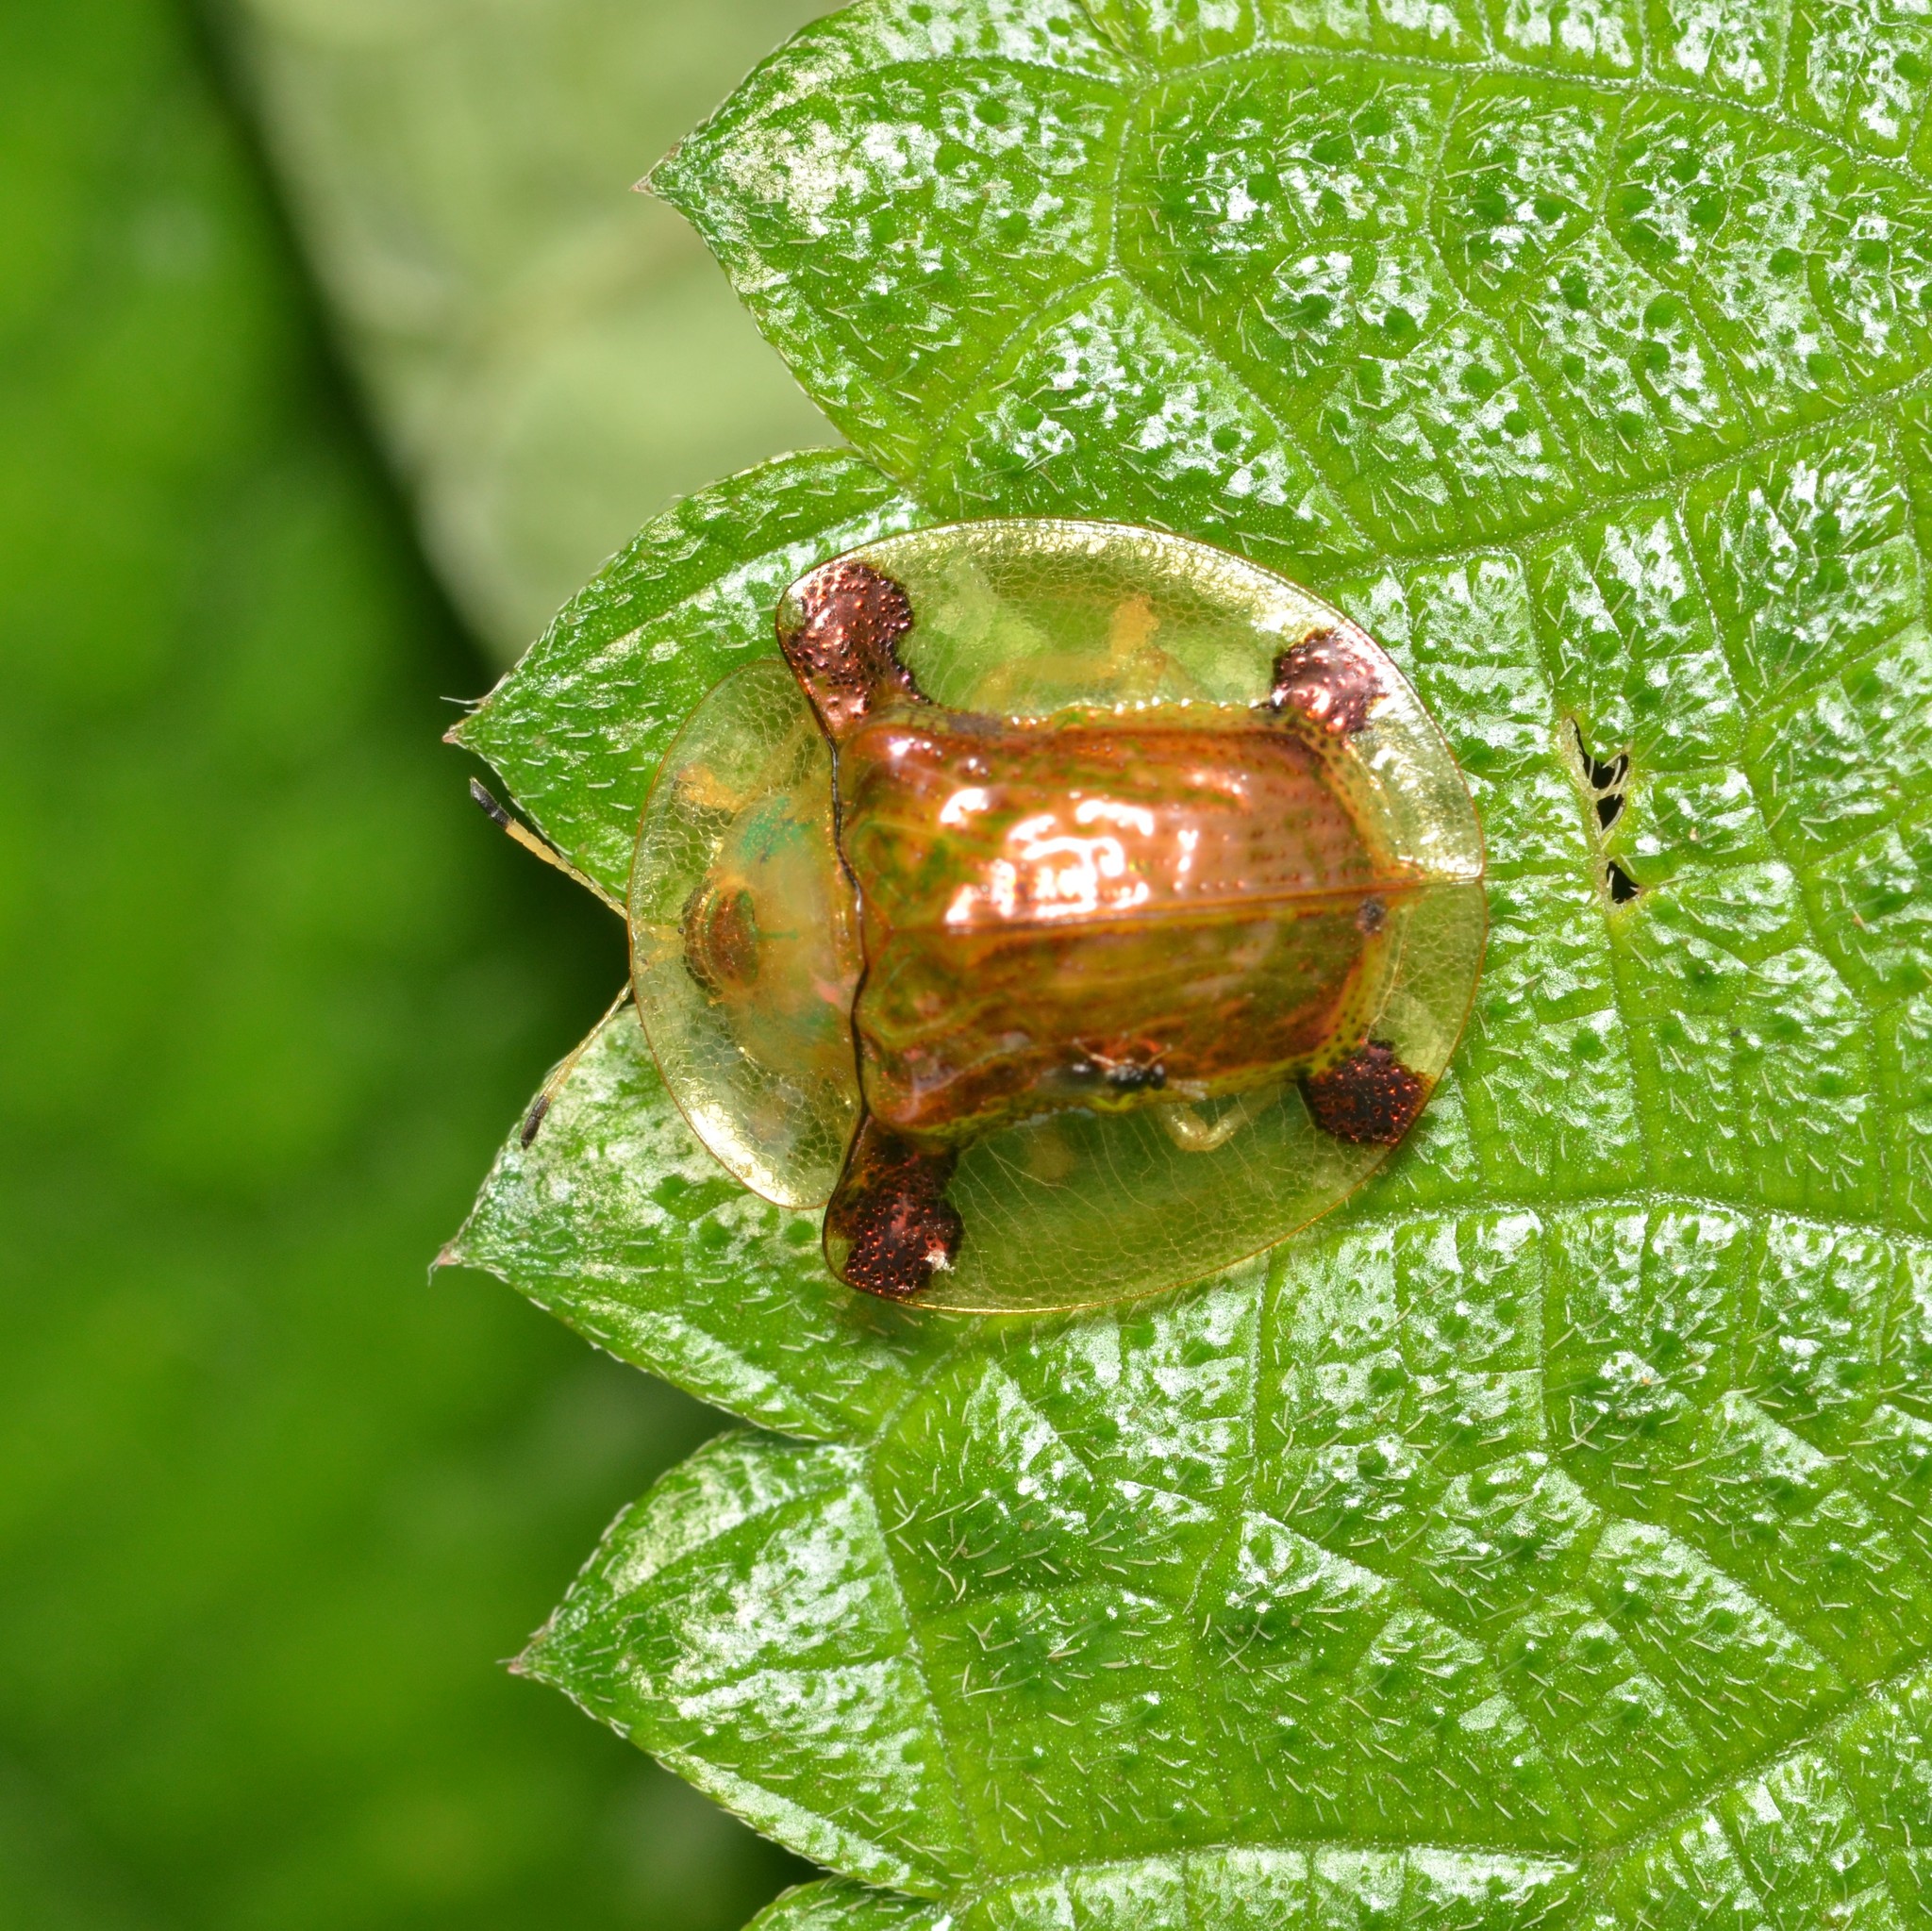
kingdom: Animalia
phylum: Arthropoda
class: Insecta
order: Coleoptera
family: Chrysomelidae
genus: Aspidimorpha
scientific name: Aspidimorpha sanctaecrucis
